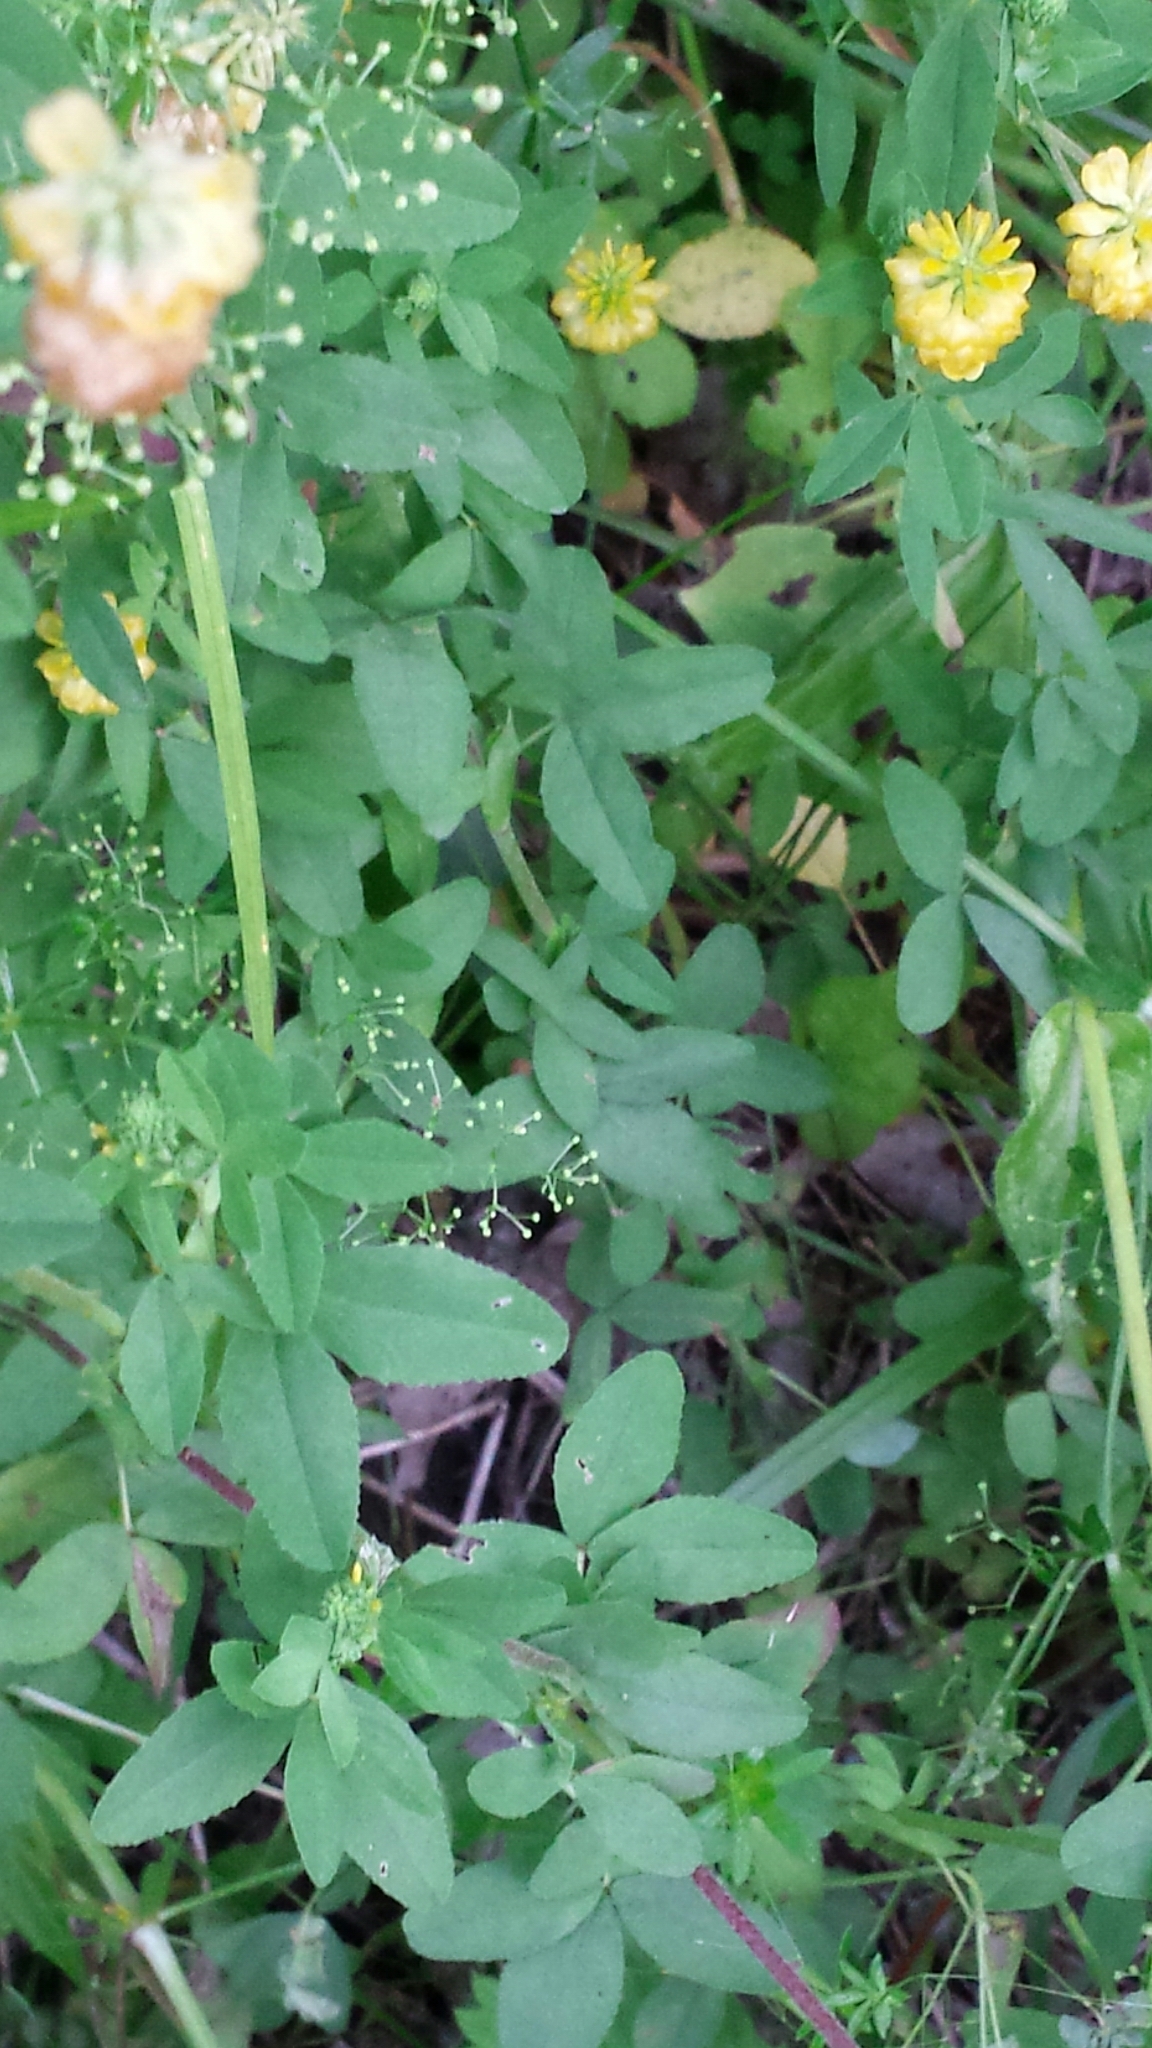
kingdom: Plantae
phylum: Tracheophyta
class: Magnoliopsida
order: Fabales
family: Fabaceae
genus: Trifolium
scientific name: Trifolium aureum
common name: Golden clover
